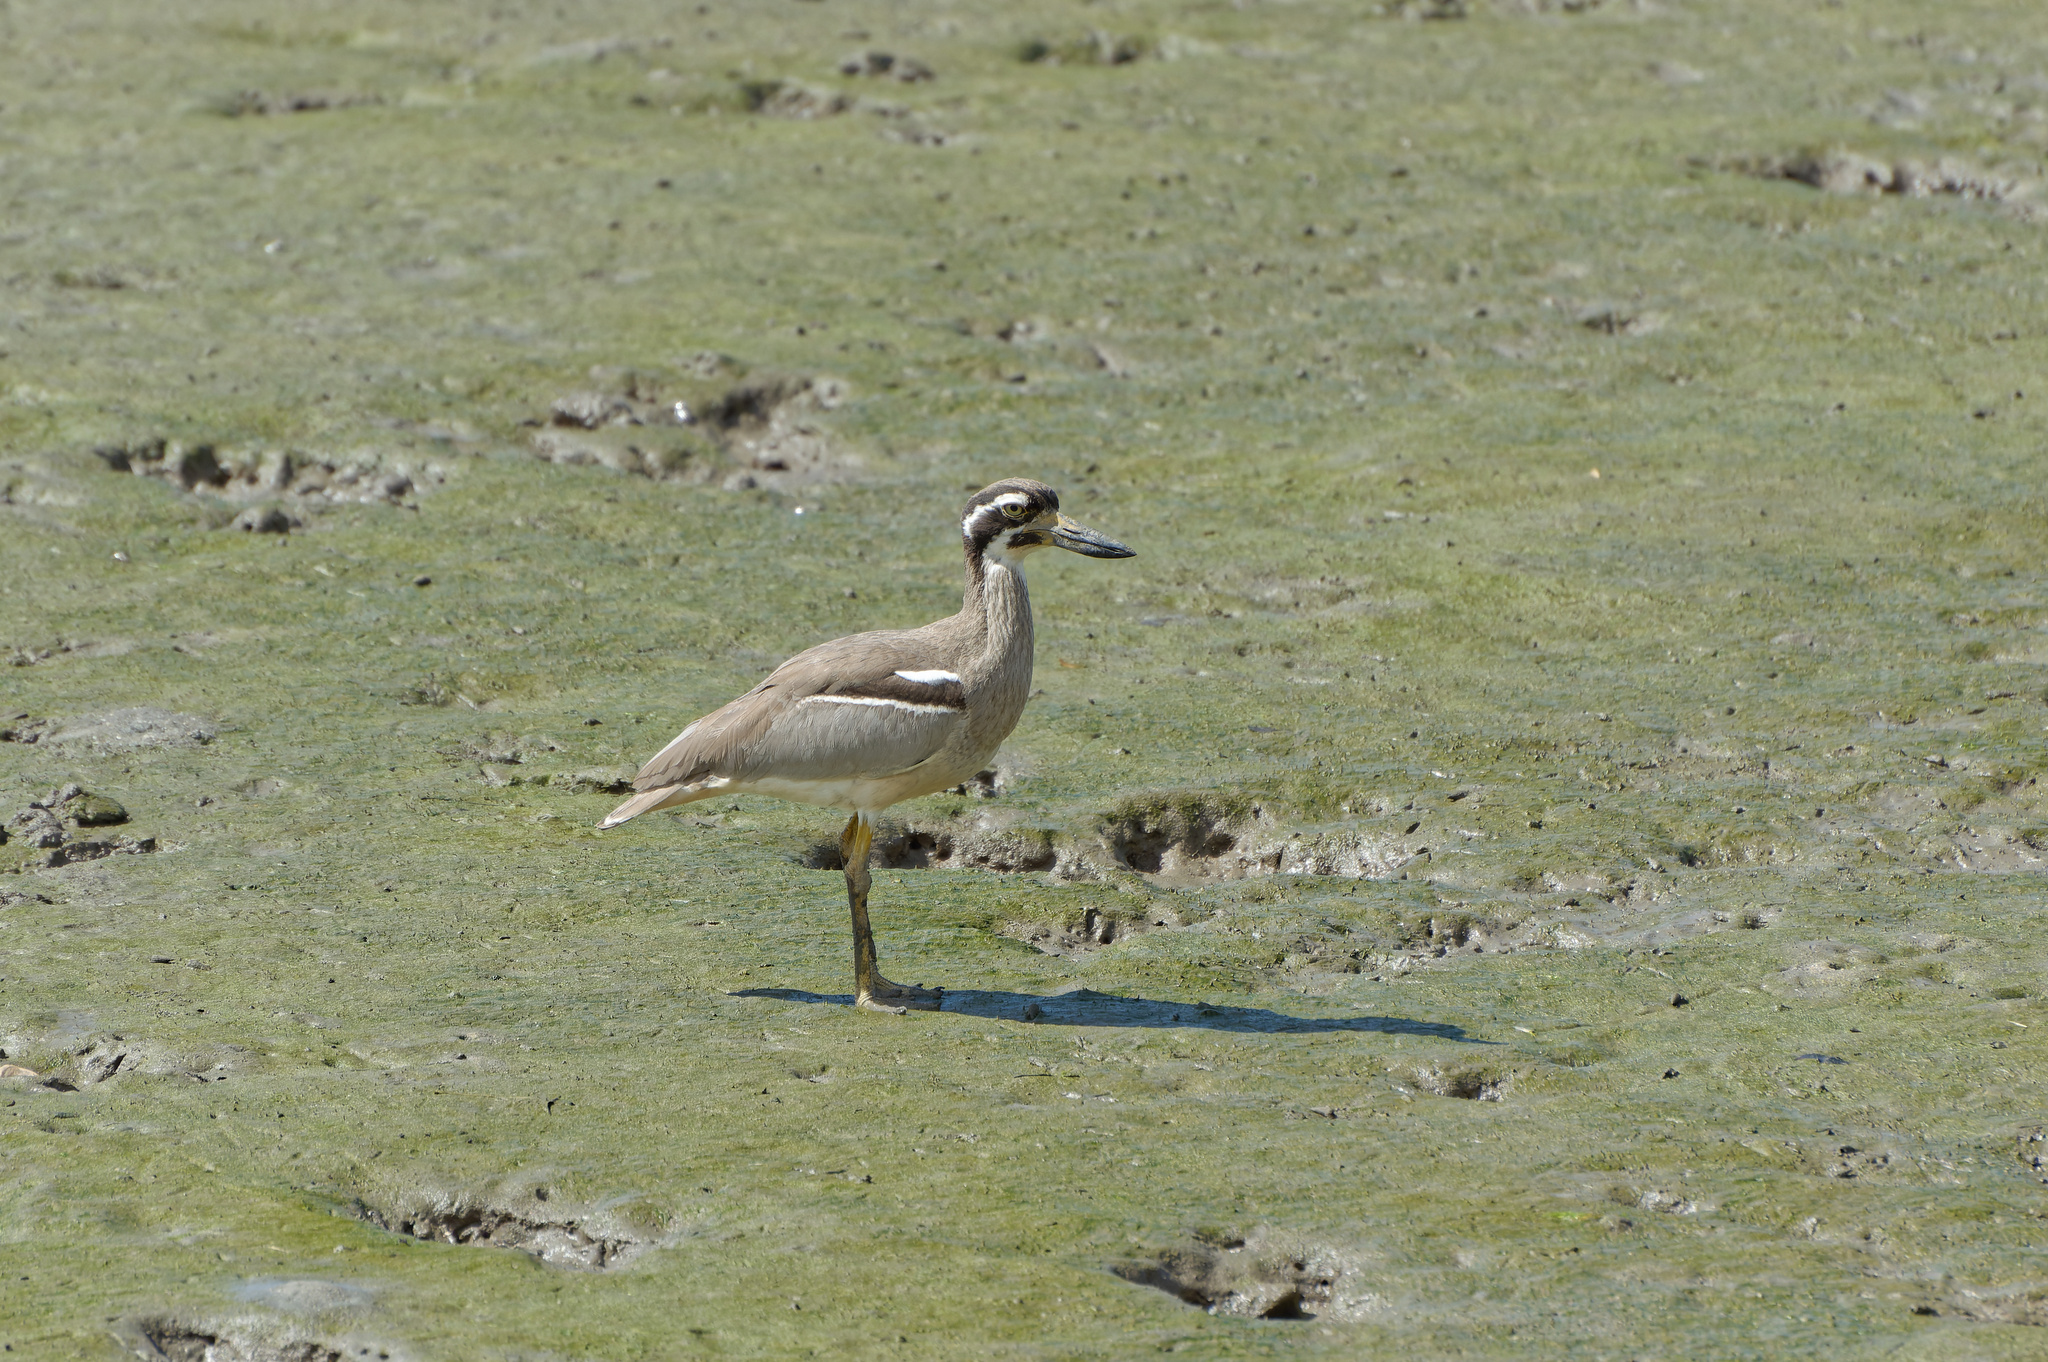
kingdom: Animalia
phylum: Chordata
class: Aves
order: Charadriiformes
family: Burhinidae
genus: Esacus
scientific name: Esacus magnirostris
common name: Beach stone-curlew
